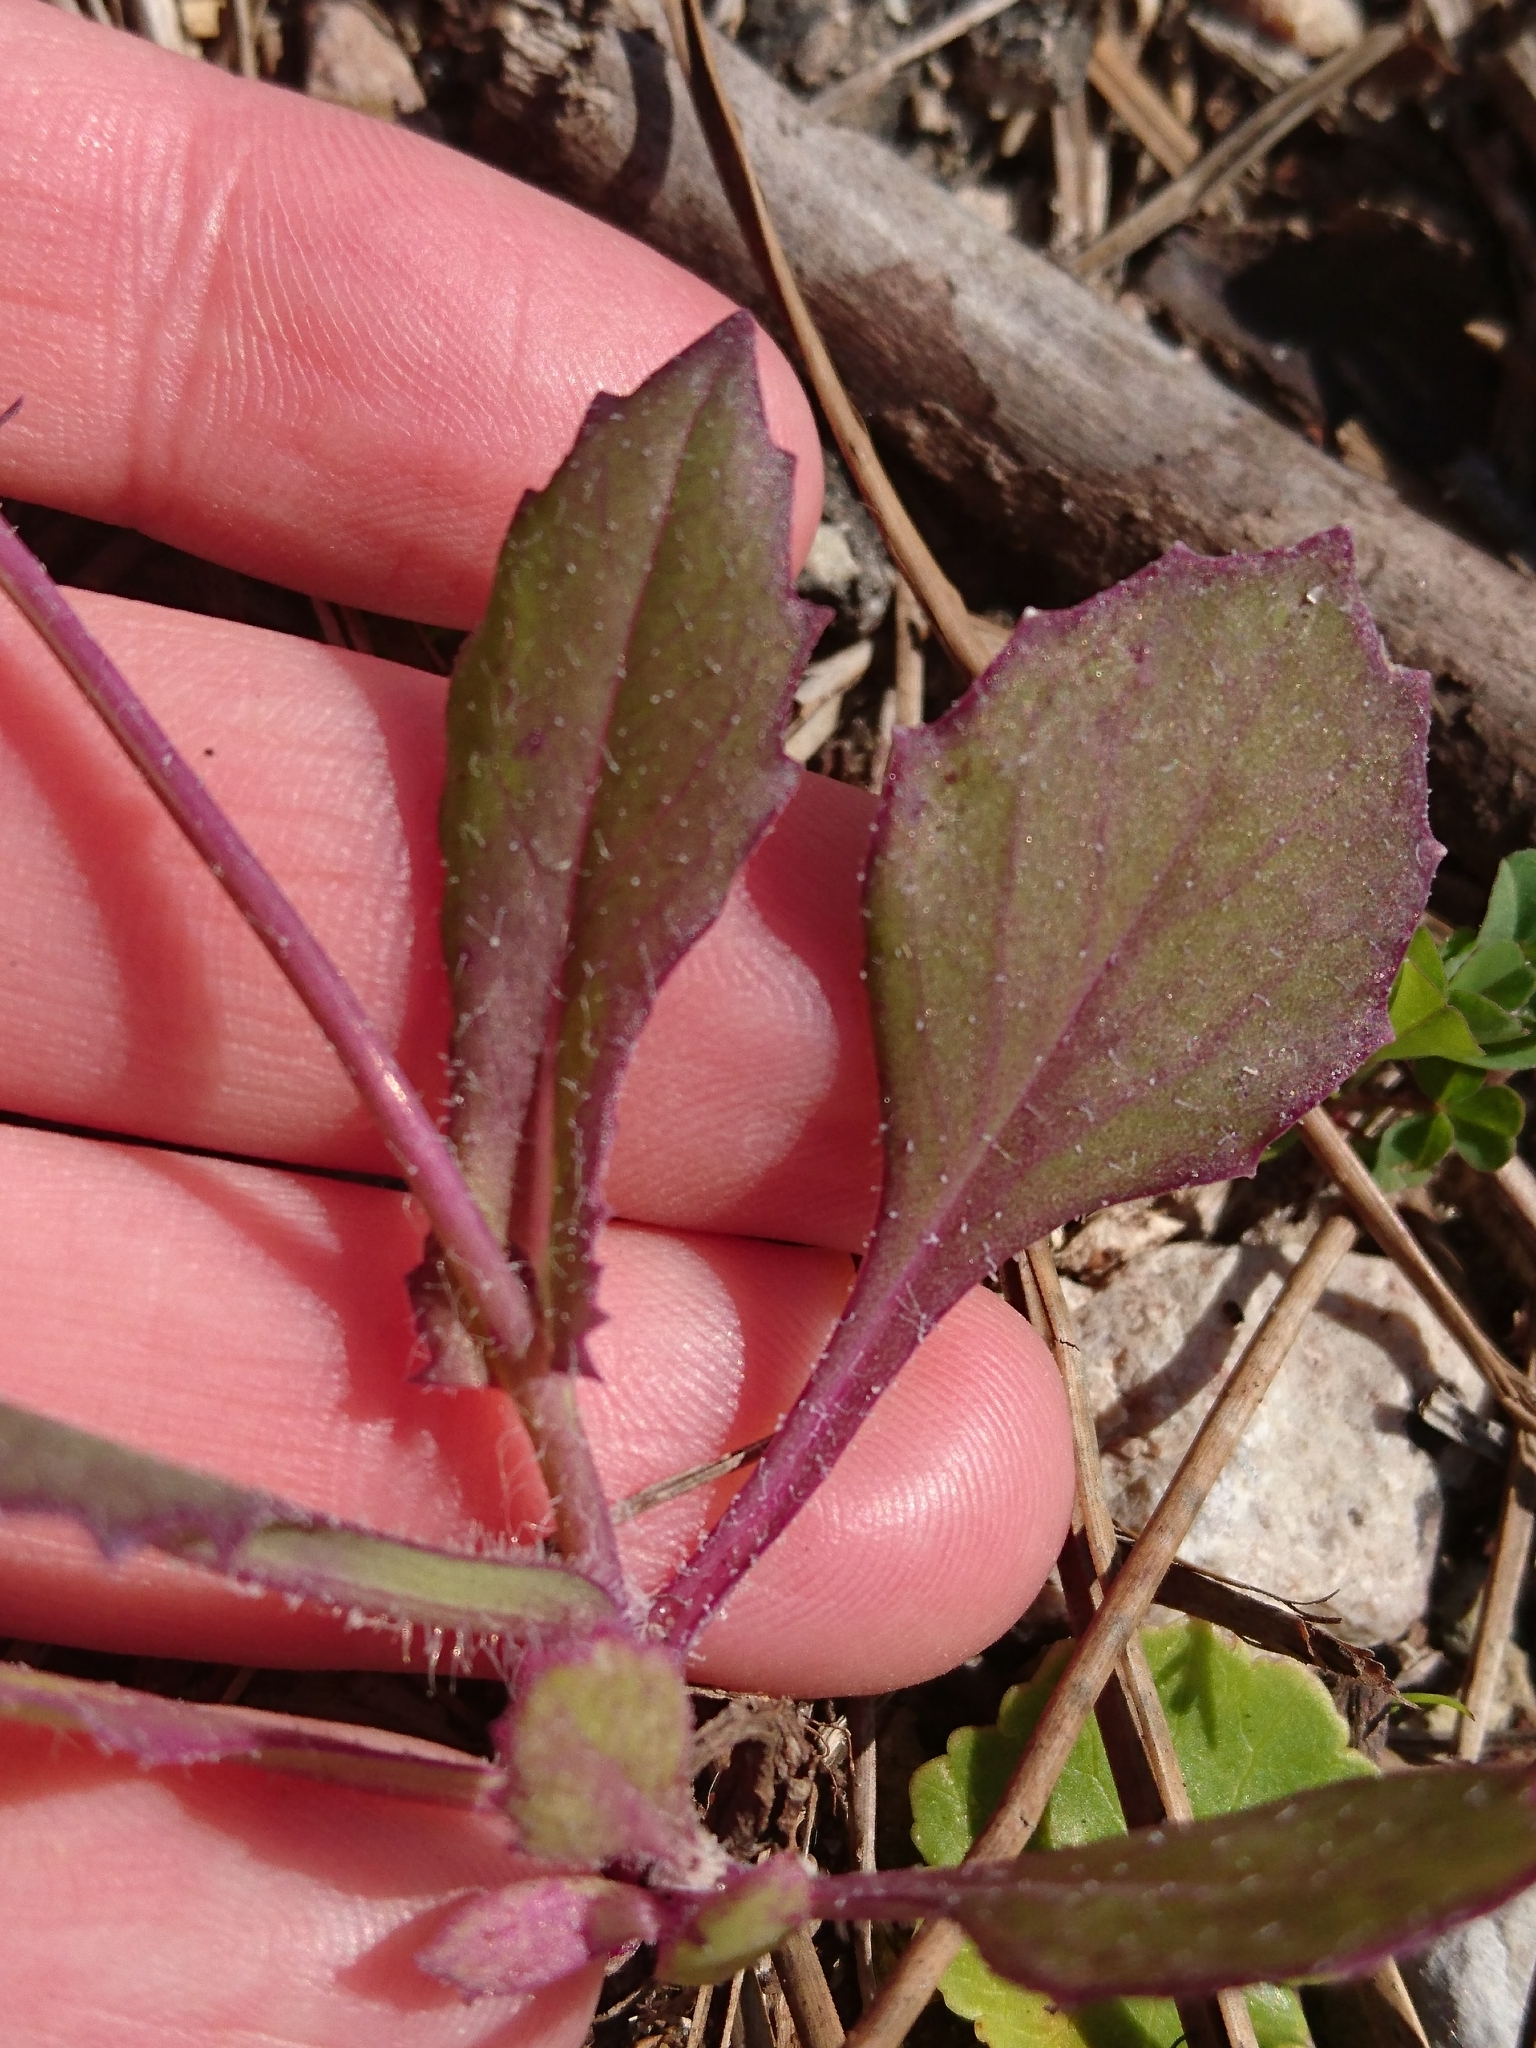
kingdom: Plantae
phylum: Tracheophyta
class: Magnoliopsida
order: Asterales
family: Asteraceae
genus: Emilia
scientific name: Emilia fosbergii
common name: Florida tasselflower
